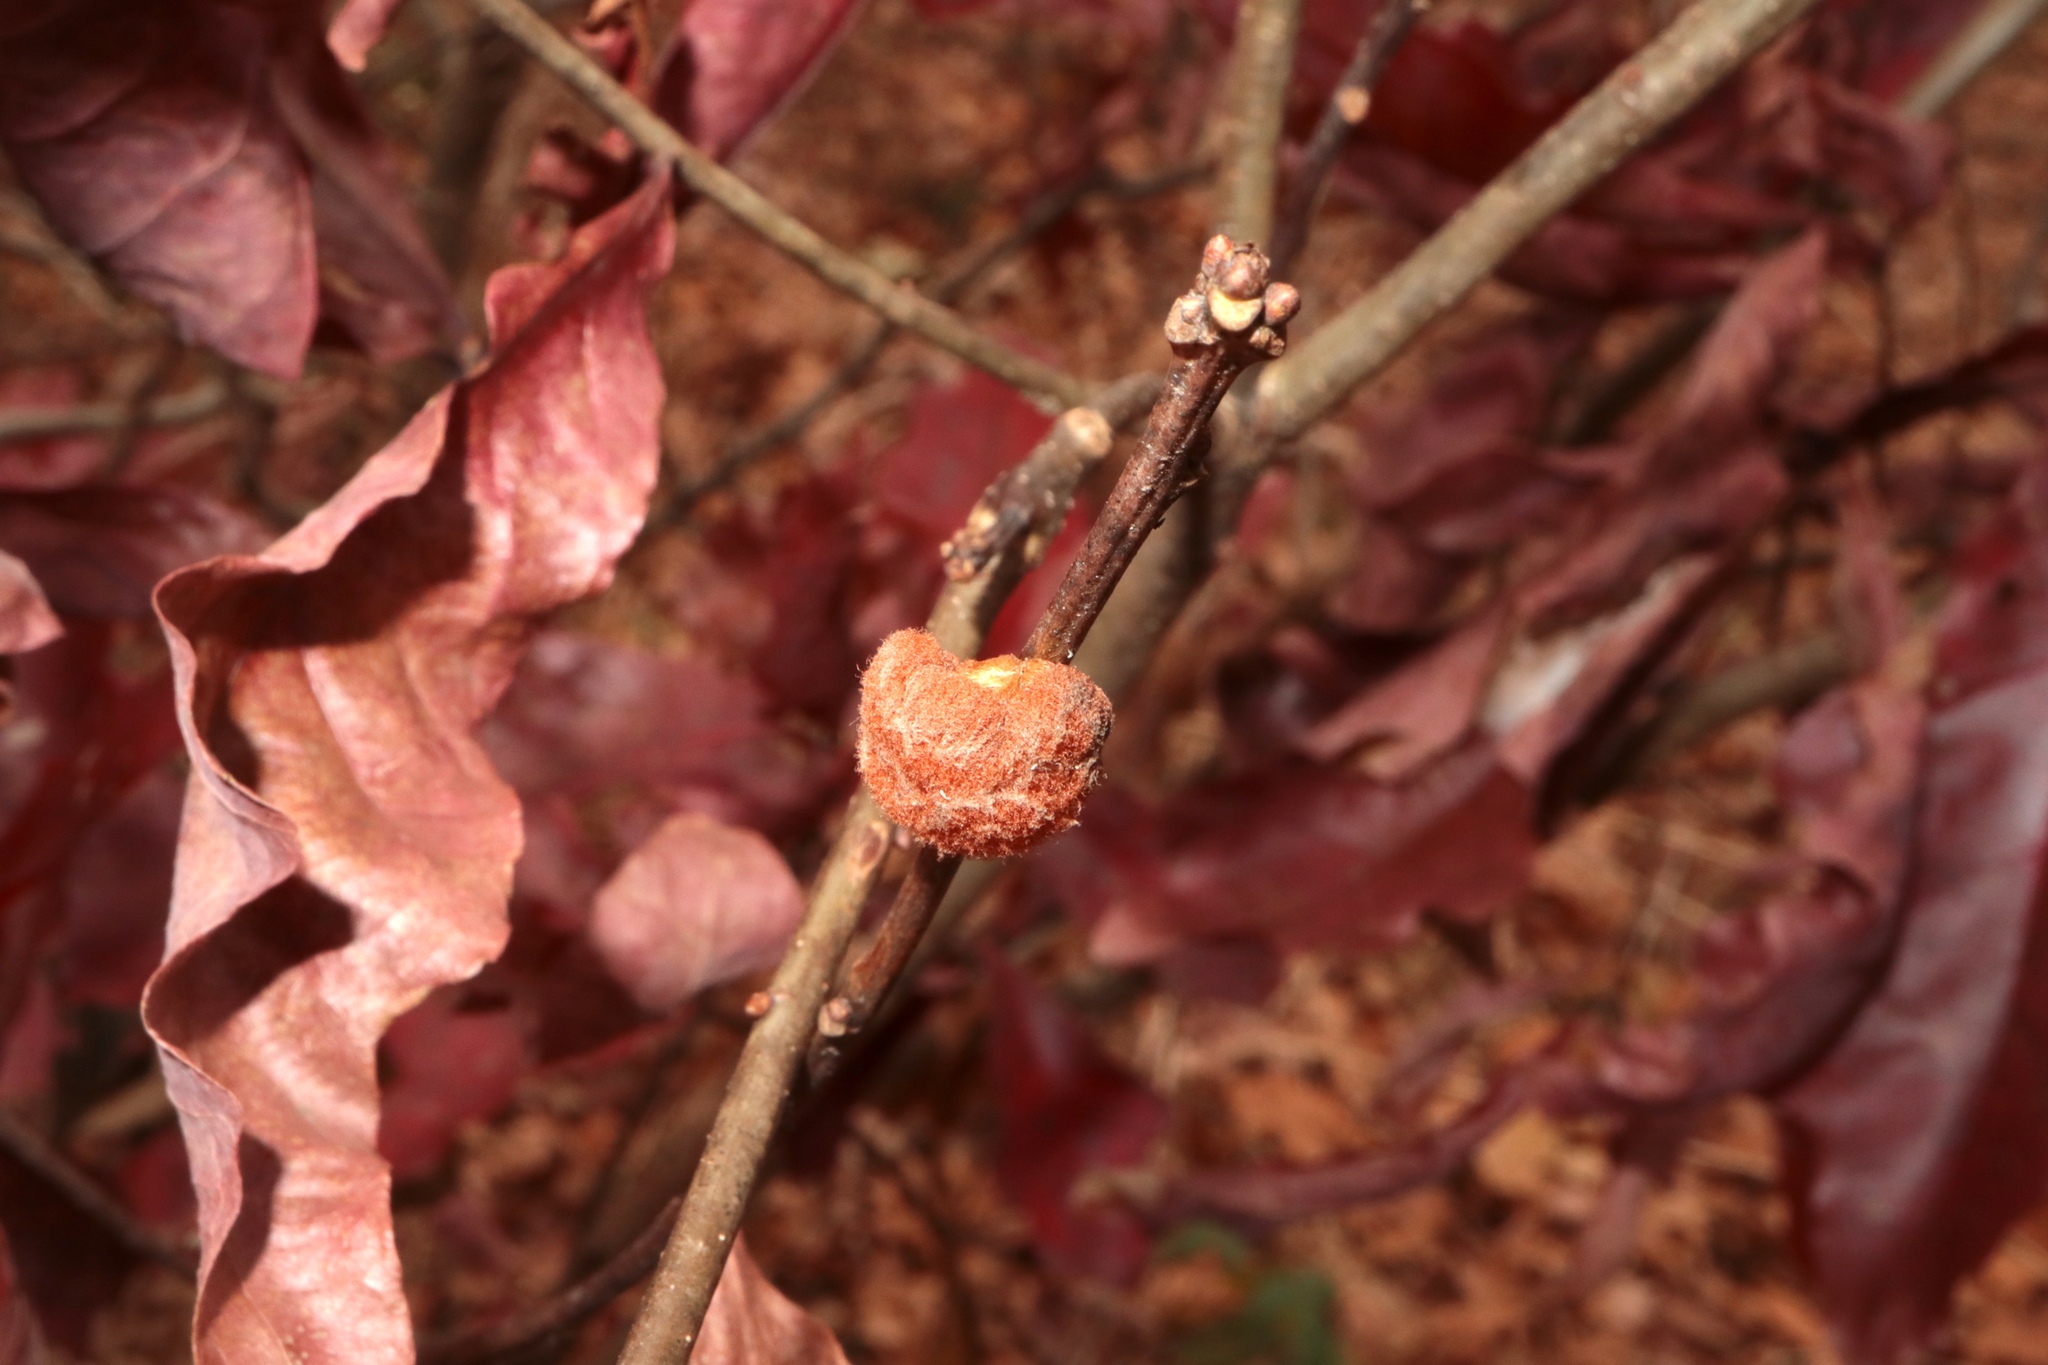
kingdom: Animalia
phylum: Arthropoda
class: Insecta
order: Hymenoptera
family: Cynipidae
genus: Andricus
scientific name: Andricus quercusflocci
